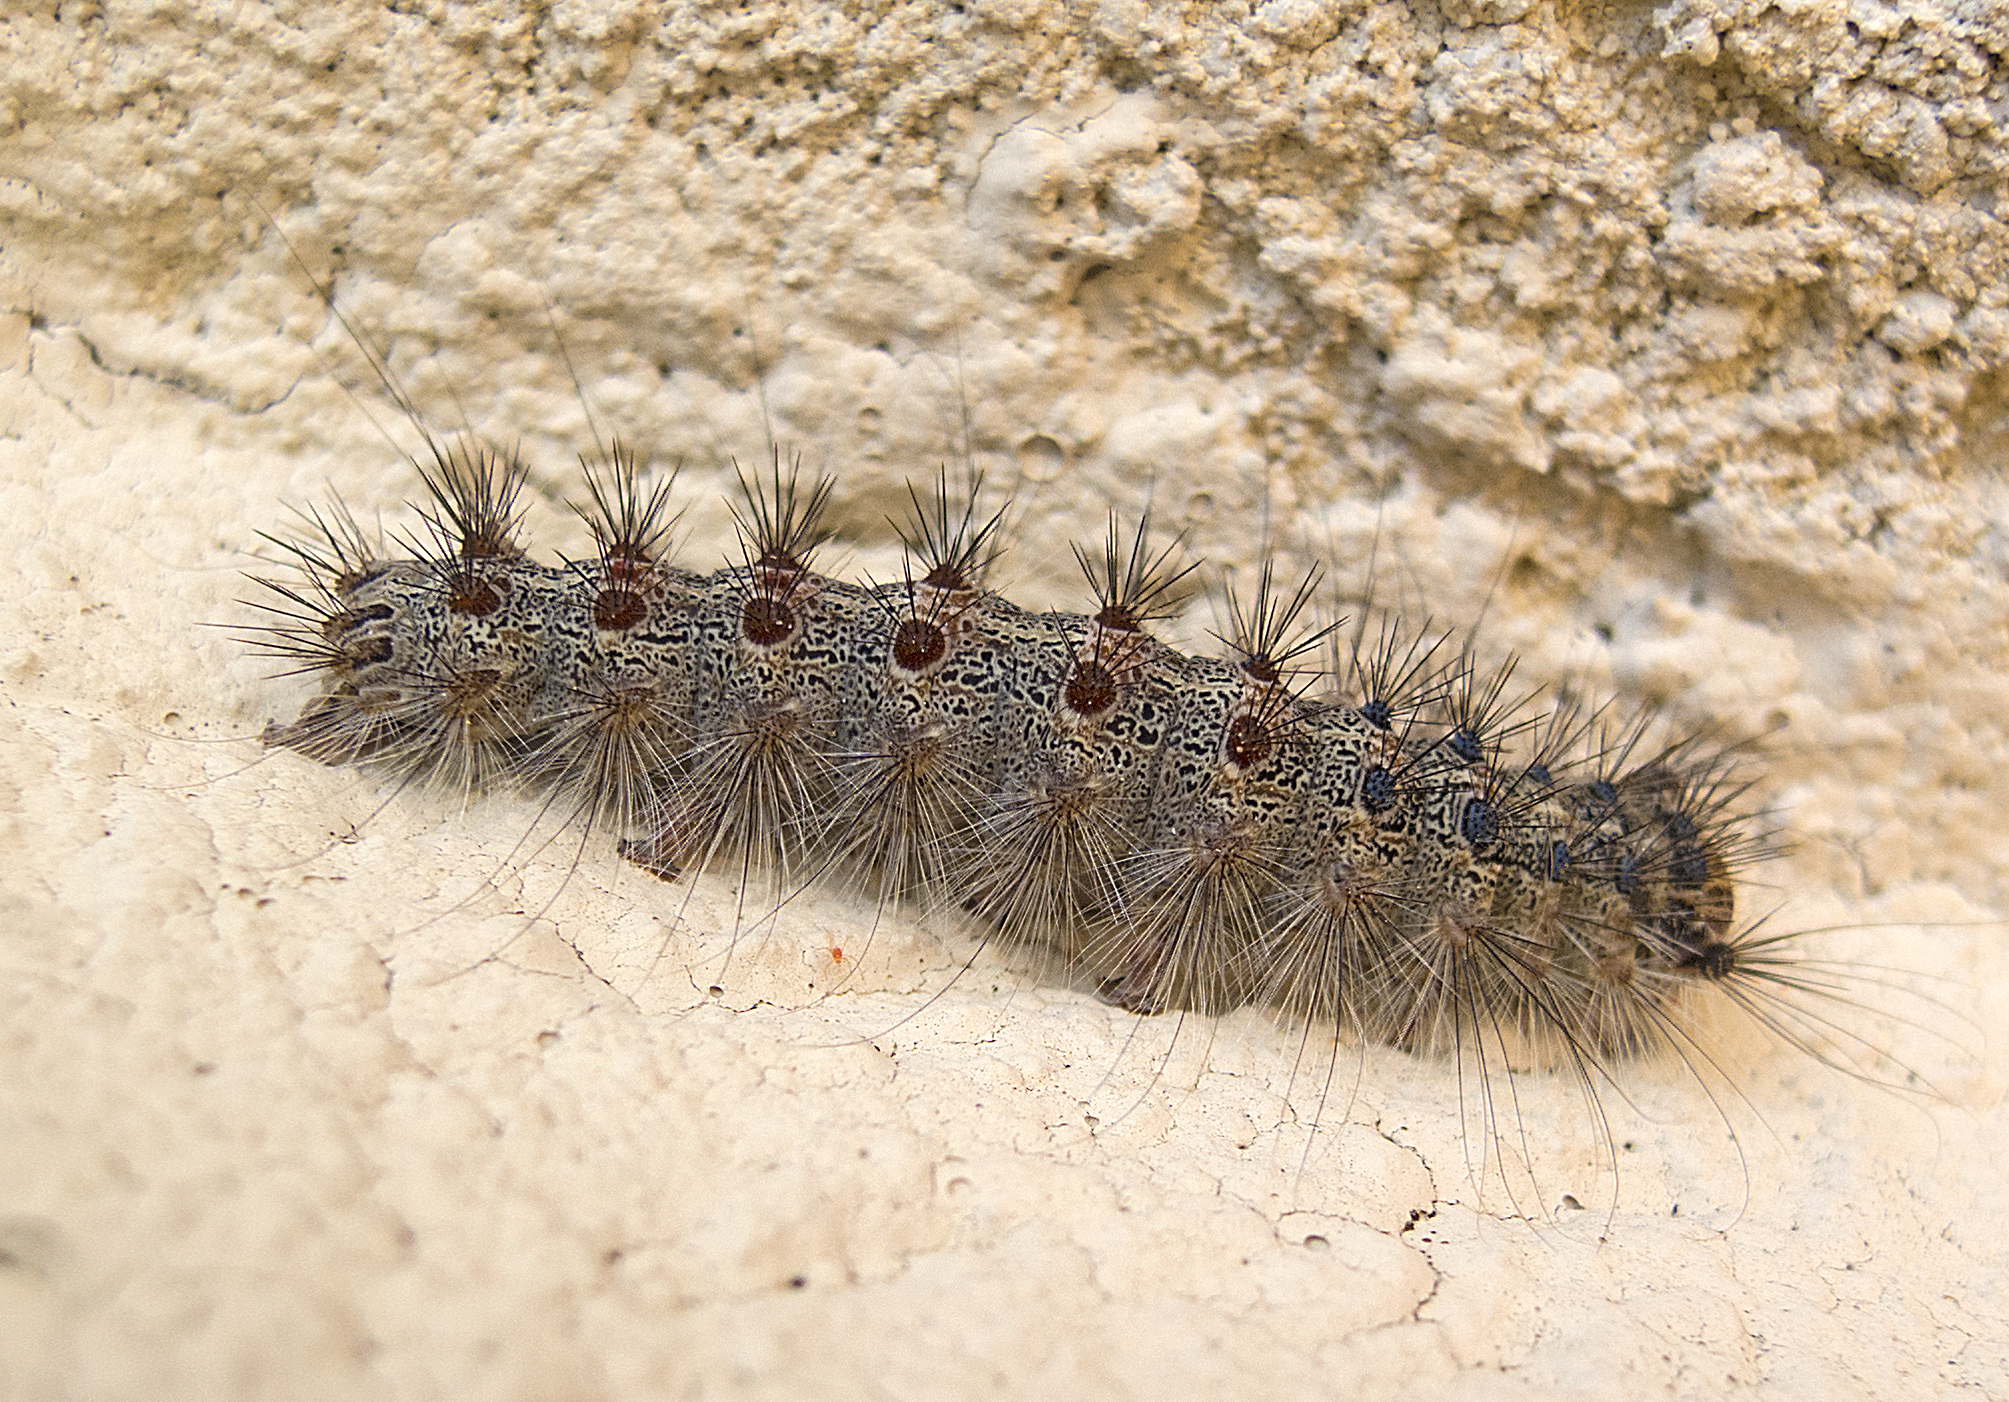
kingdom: Animalia
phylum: Arthropoda
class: Insecta
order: Lepidoptera
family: Erebidae
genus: Lymantria
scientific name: Lymantria dispar
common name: Gypsy moth
